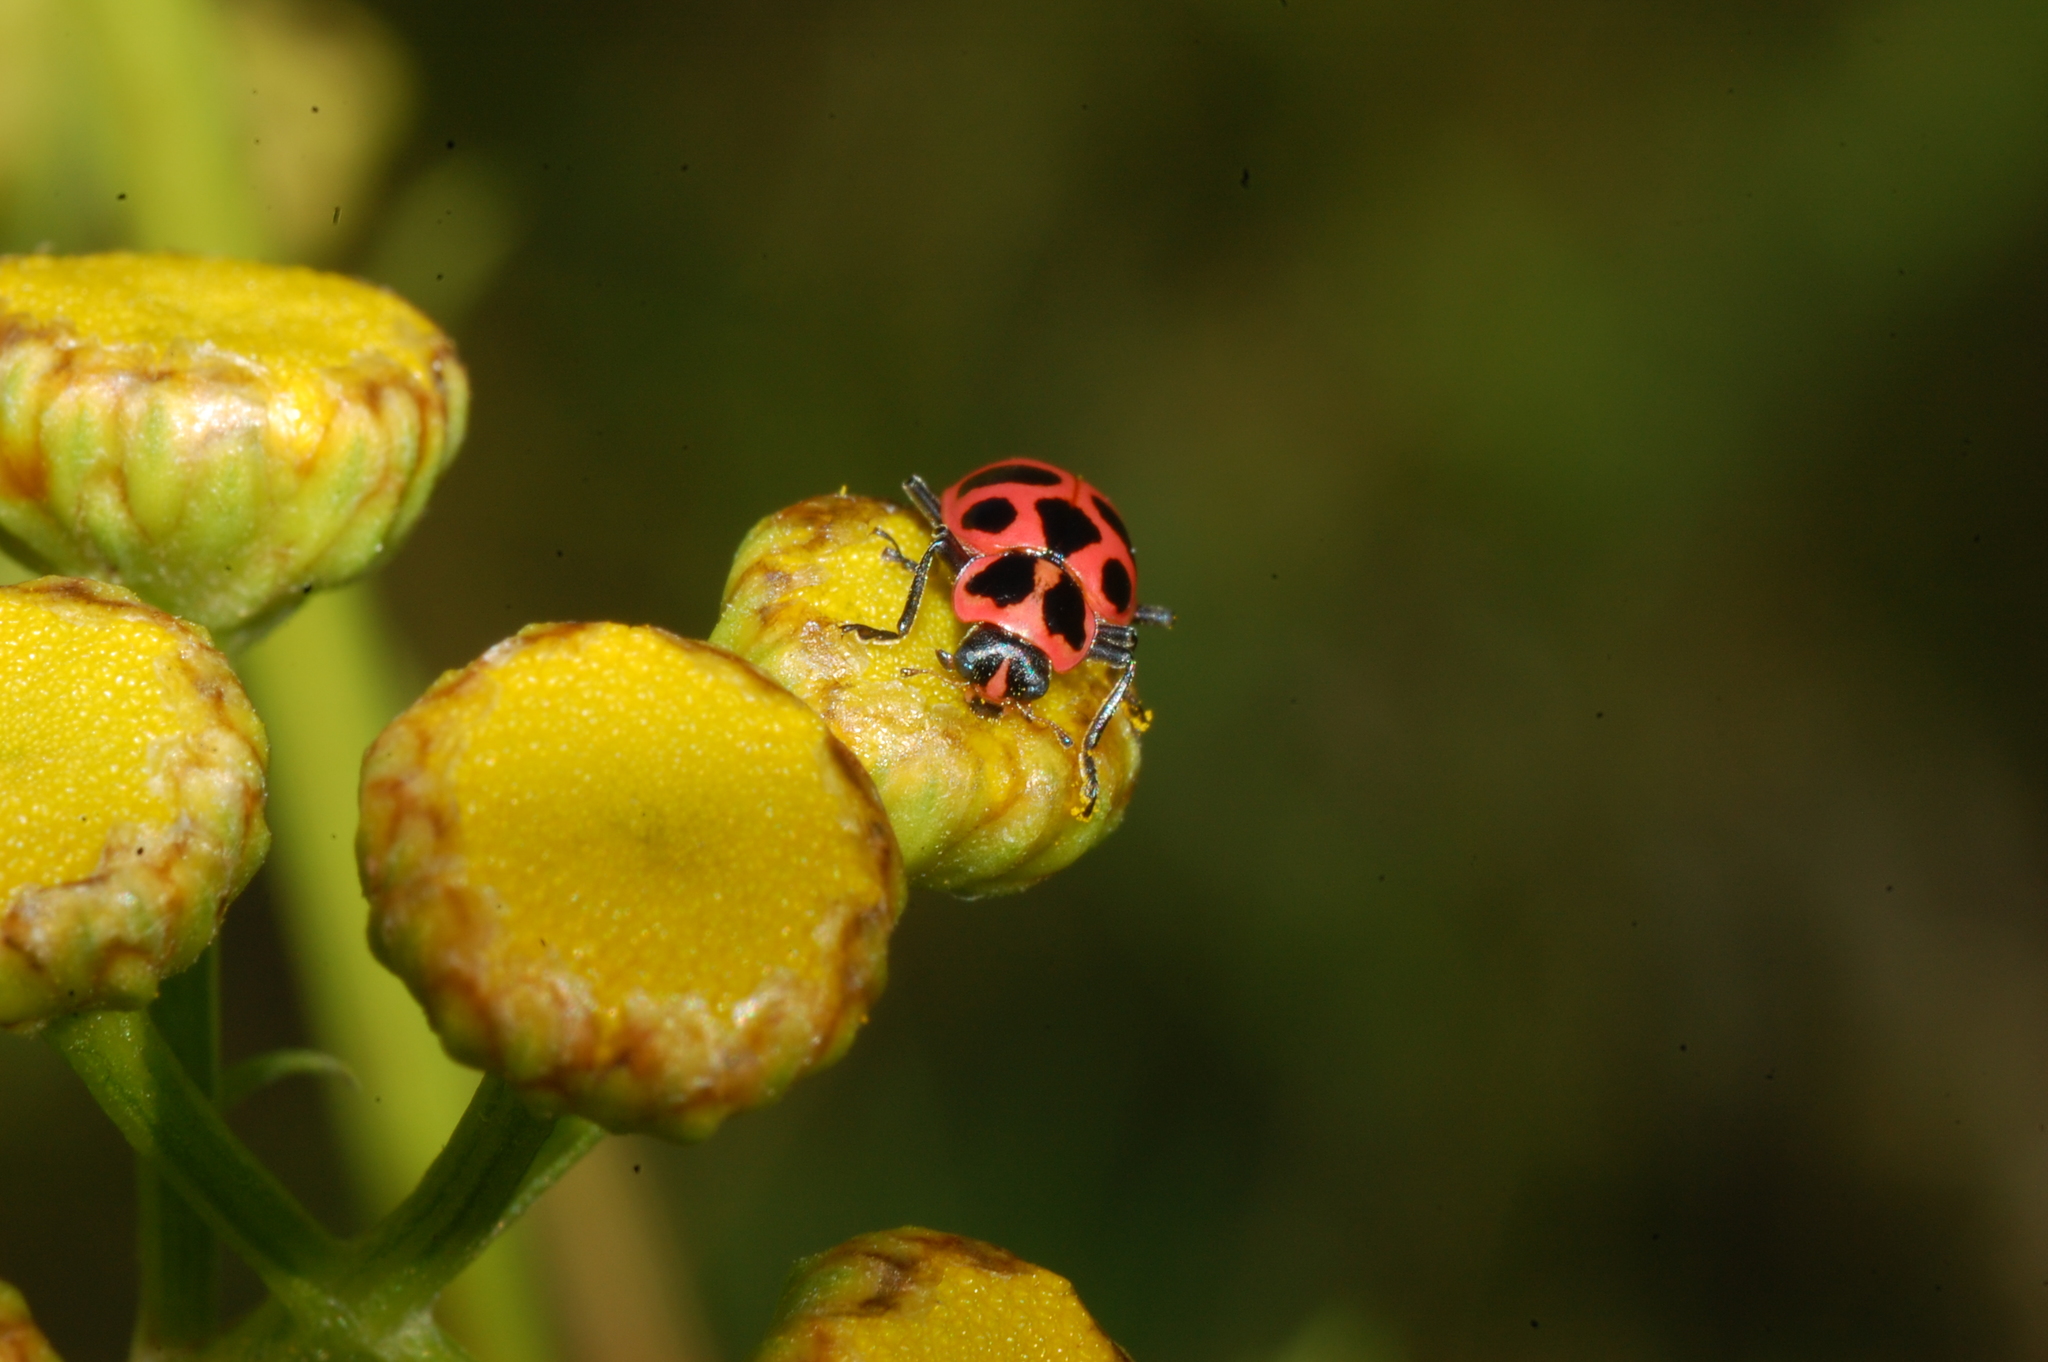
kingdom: Animalia
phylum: Arthropoda
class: Insecta
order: Coleoptera
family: Coccinellidae
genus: Coleomegilla
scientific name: Coleomegilla maculata
